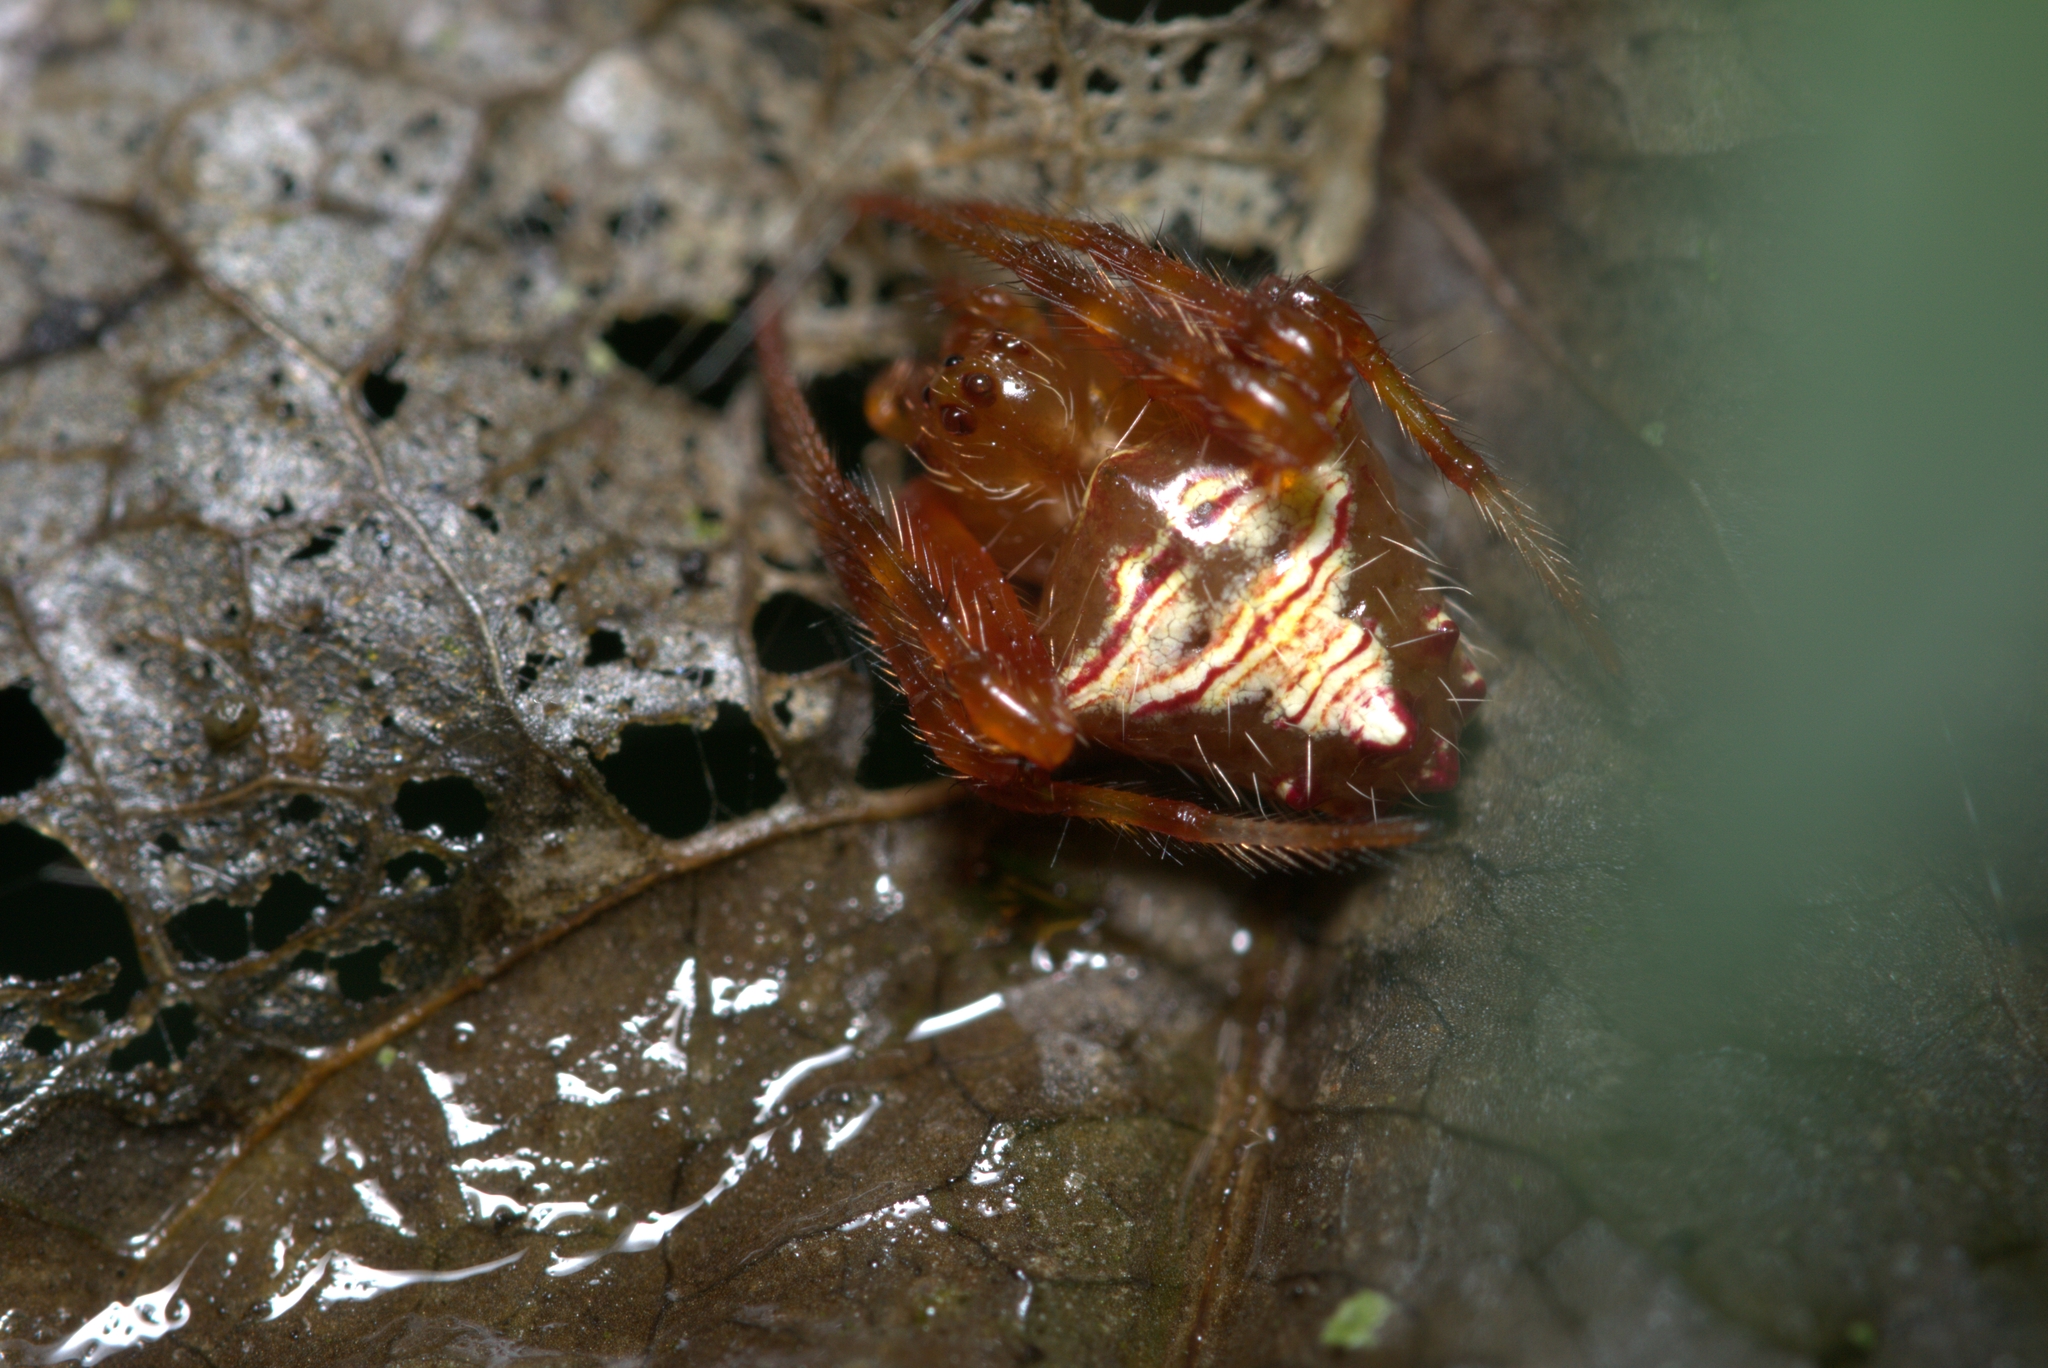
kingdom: Animalia
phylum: Arthropoda
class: Arachnida
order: Araneae
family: Araneidae
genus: Verrucosa
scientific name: Verrucosa meridionalis
